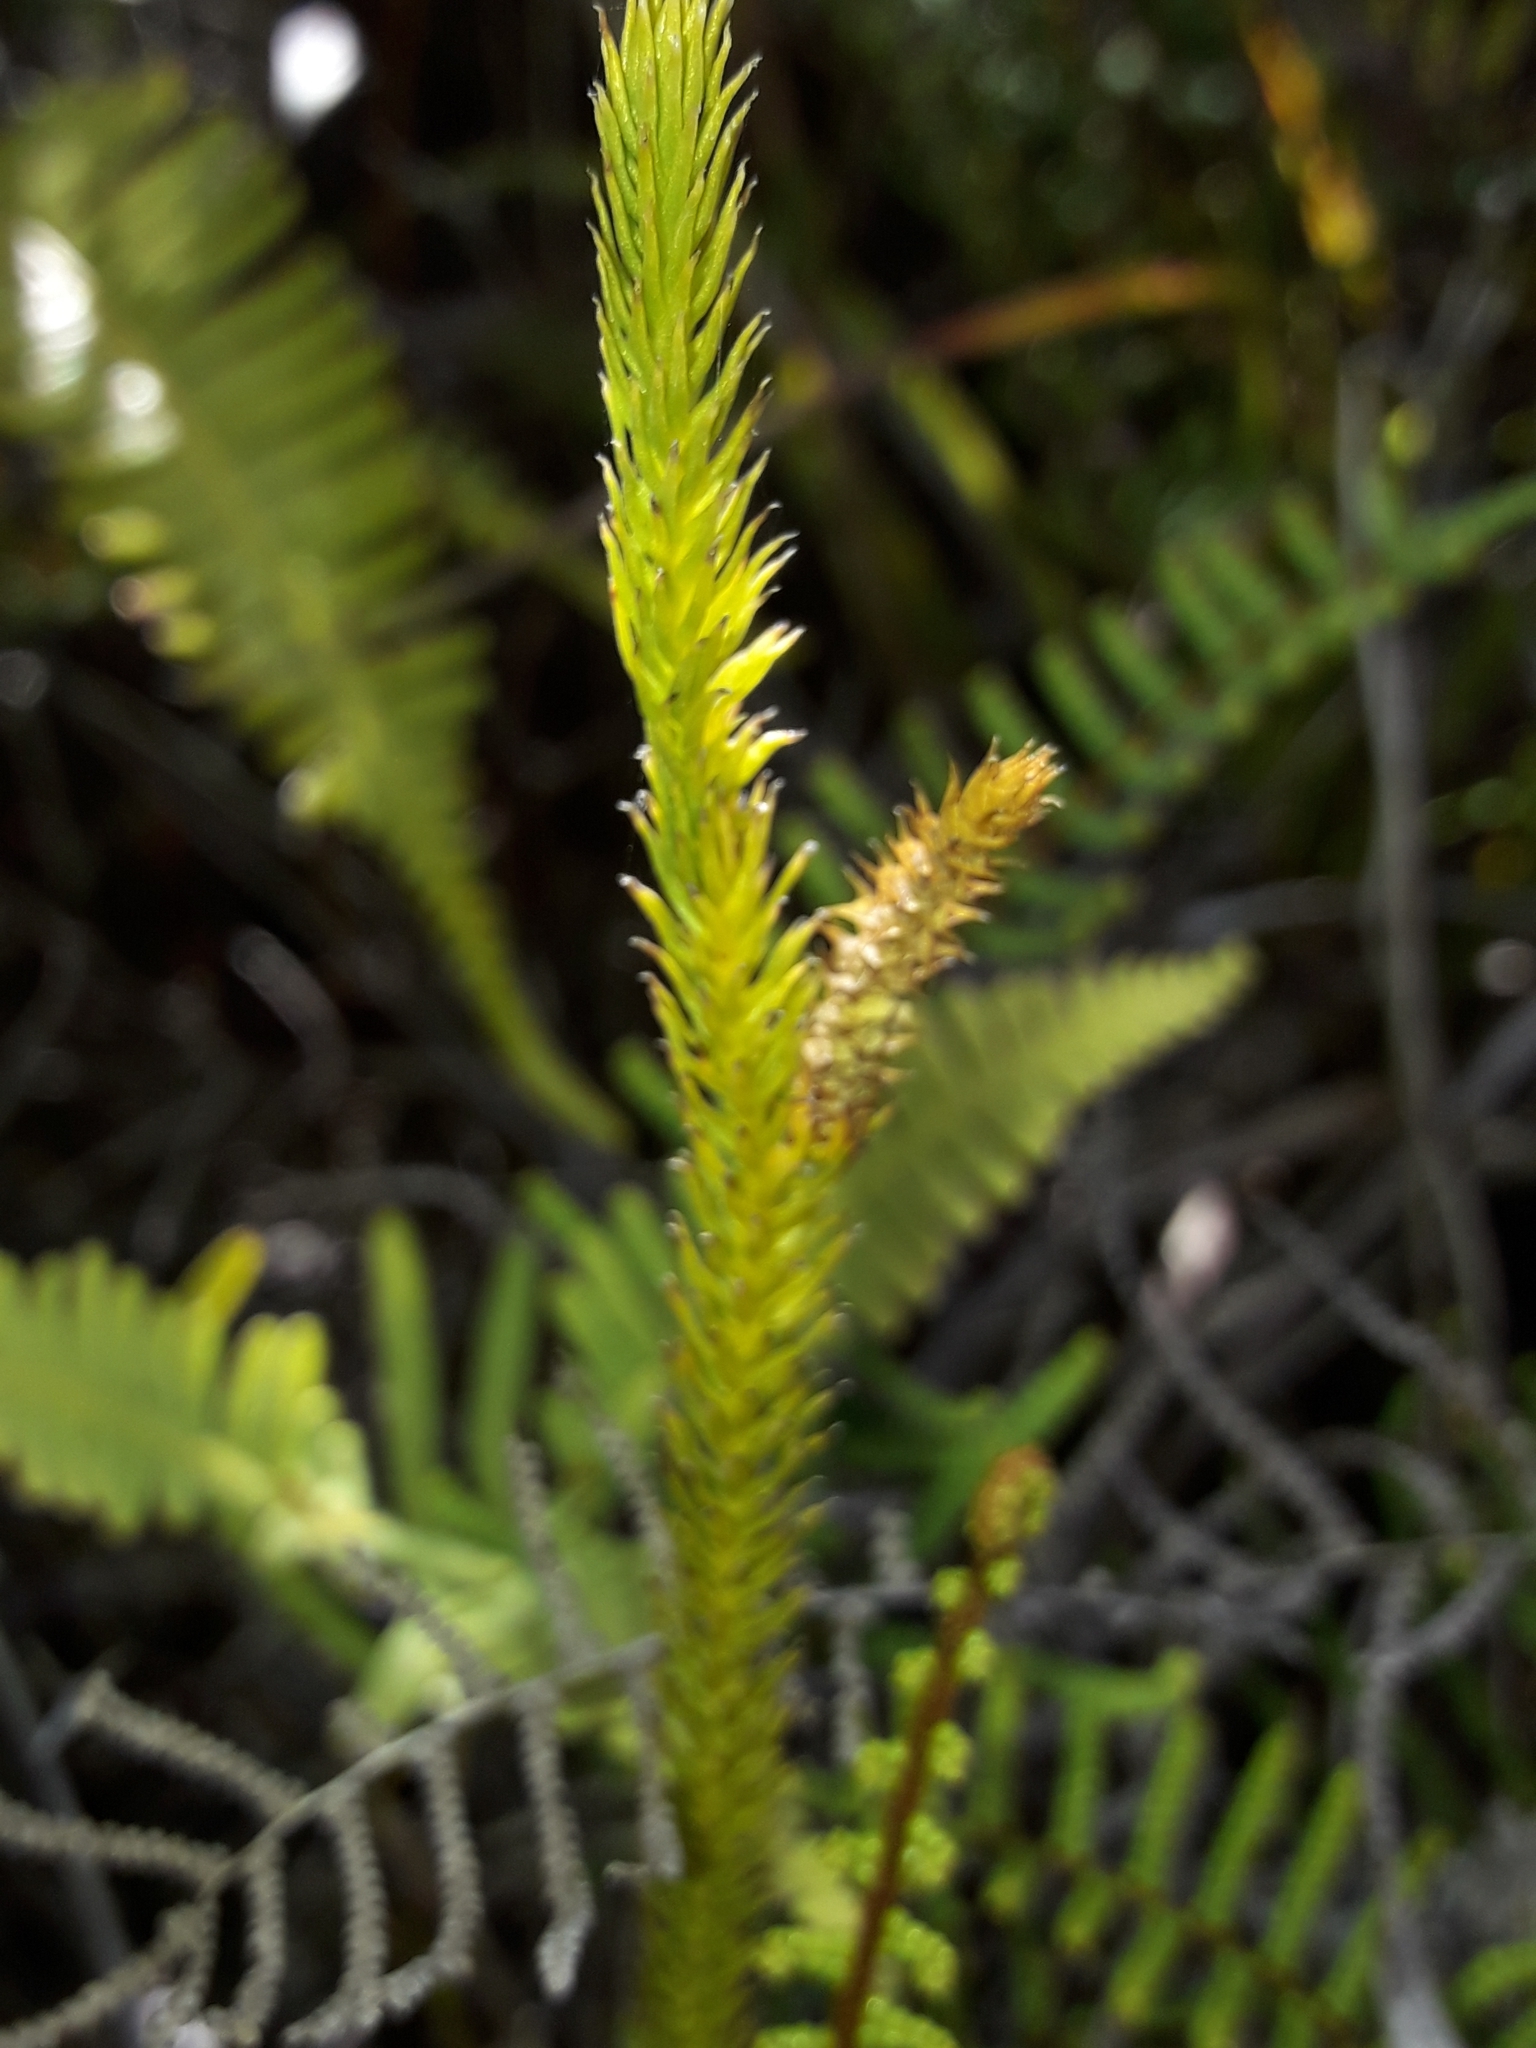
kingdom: Plantae
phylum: Tracheophyta
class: Lycopodiopsida
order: Lycopodiales
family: Lycopodiaceae
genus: Lateristachys
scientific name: Lateristachys lateralis
